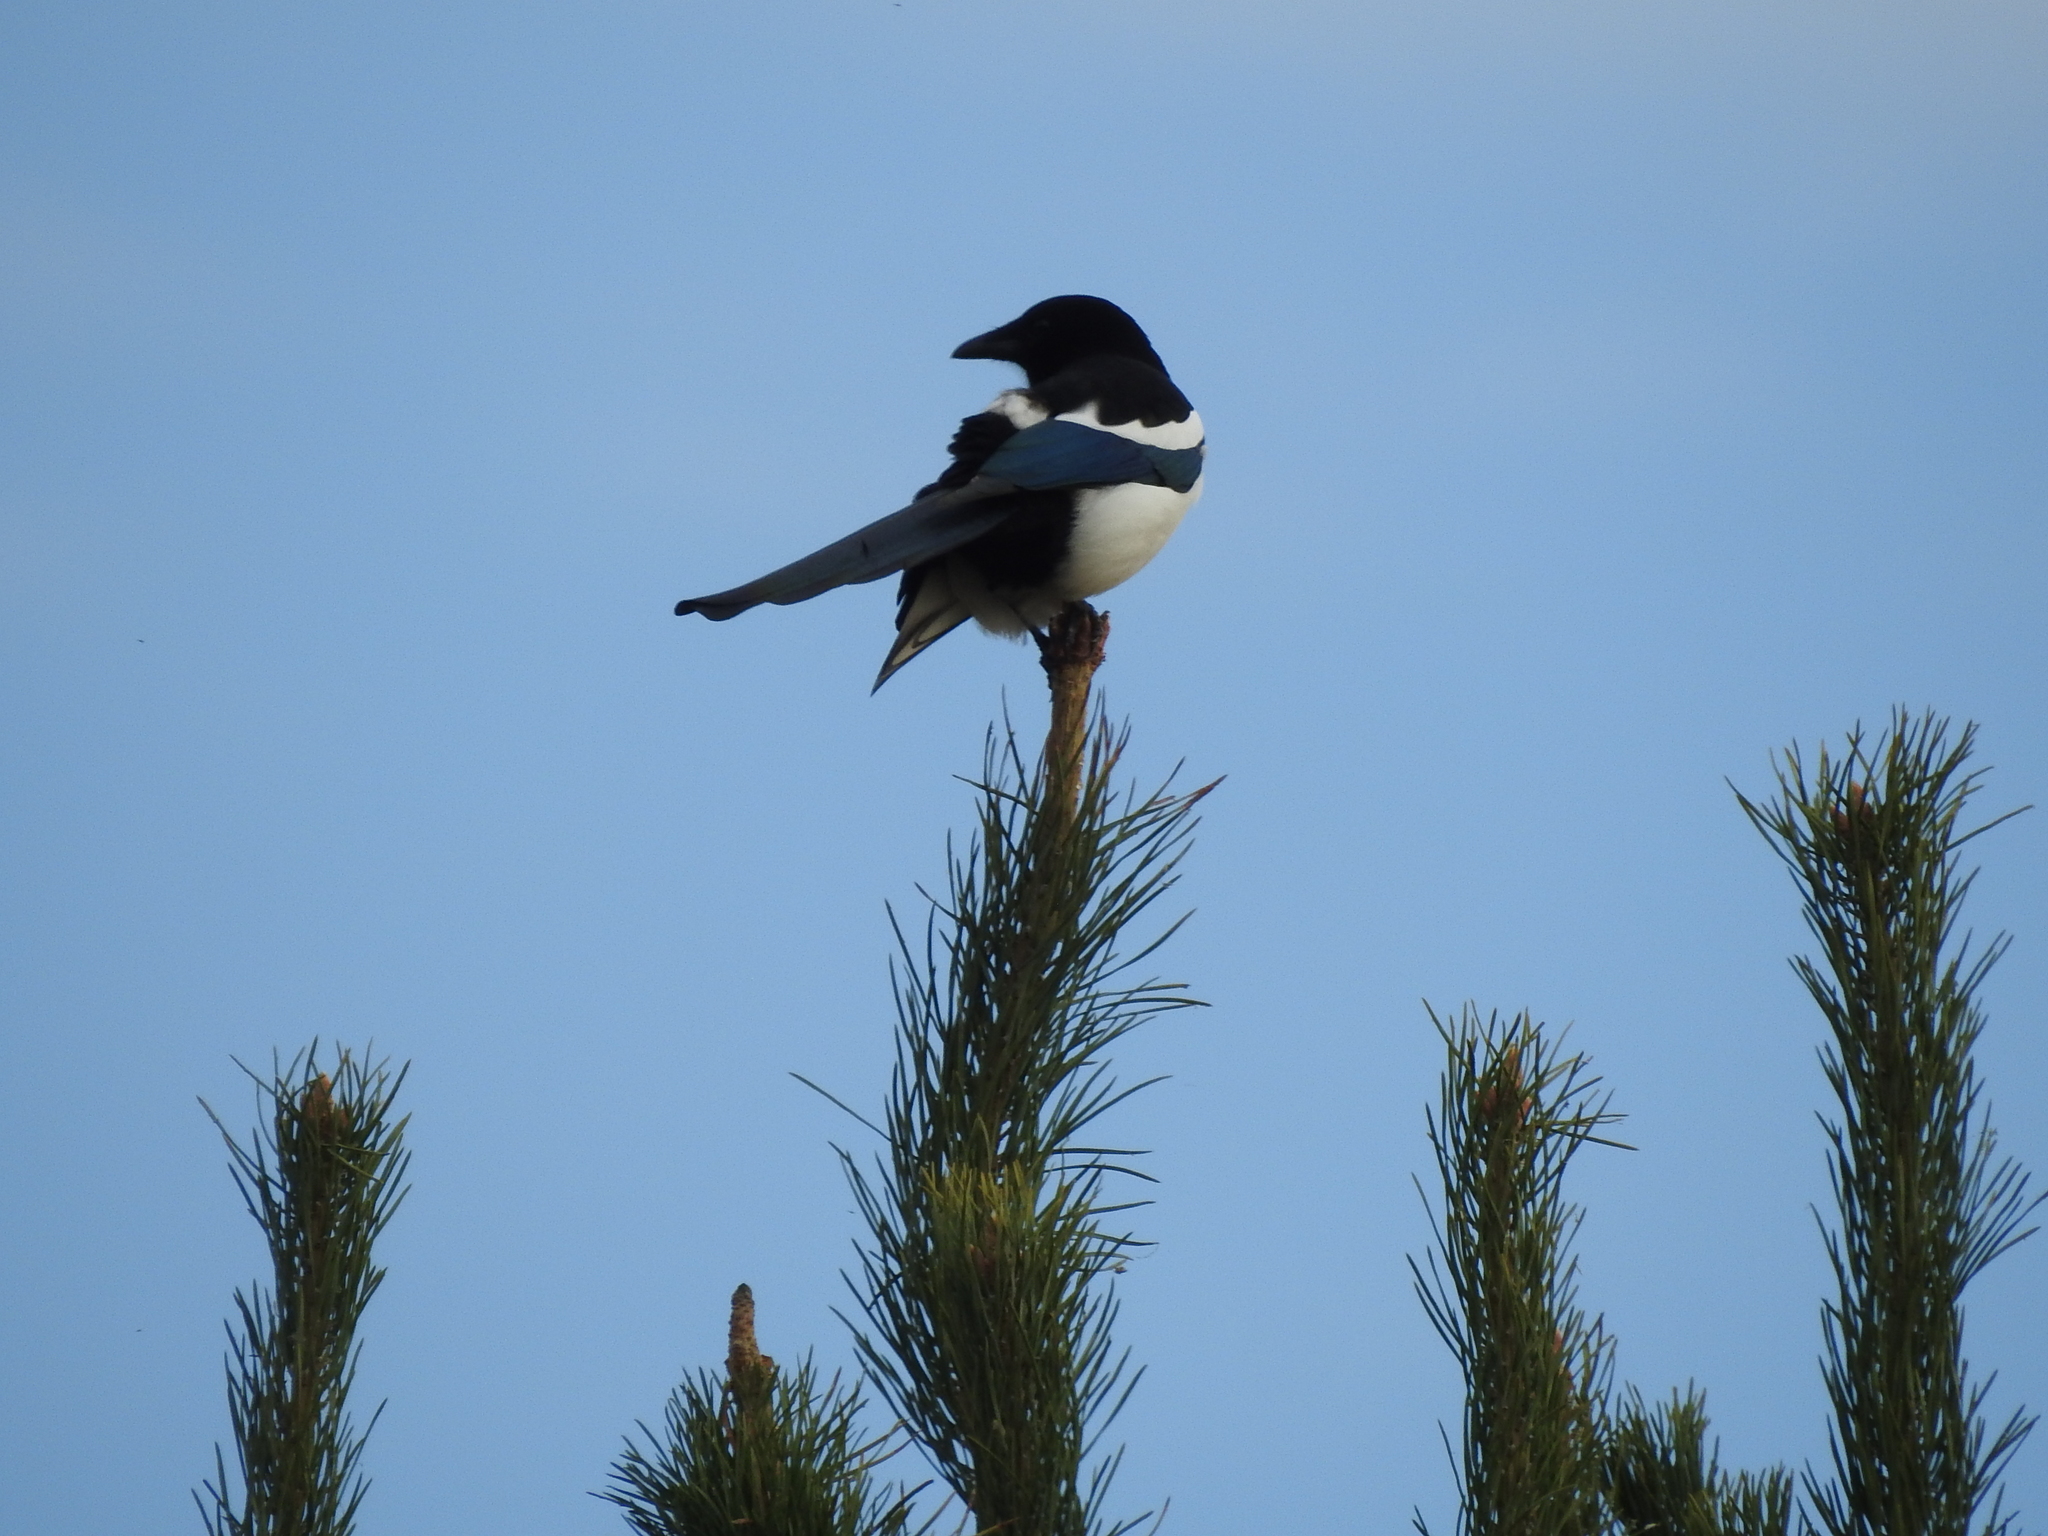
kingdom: Animalia
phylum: Chordata
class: Aves
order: Passeriformes
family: Corvidae
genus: Pica
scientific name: Pica pica
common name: Eurasian magpie
